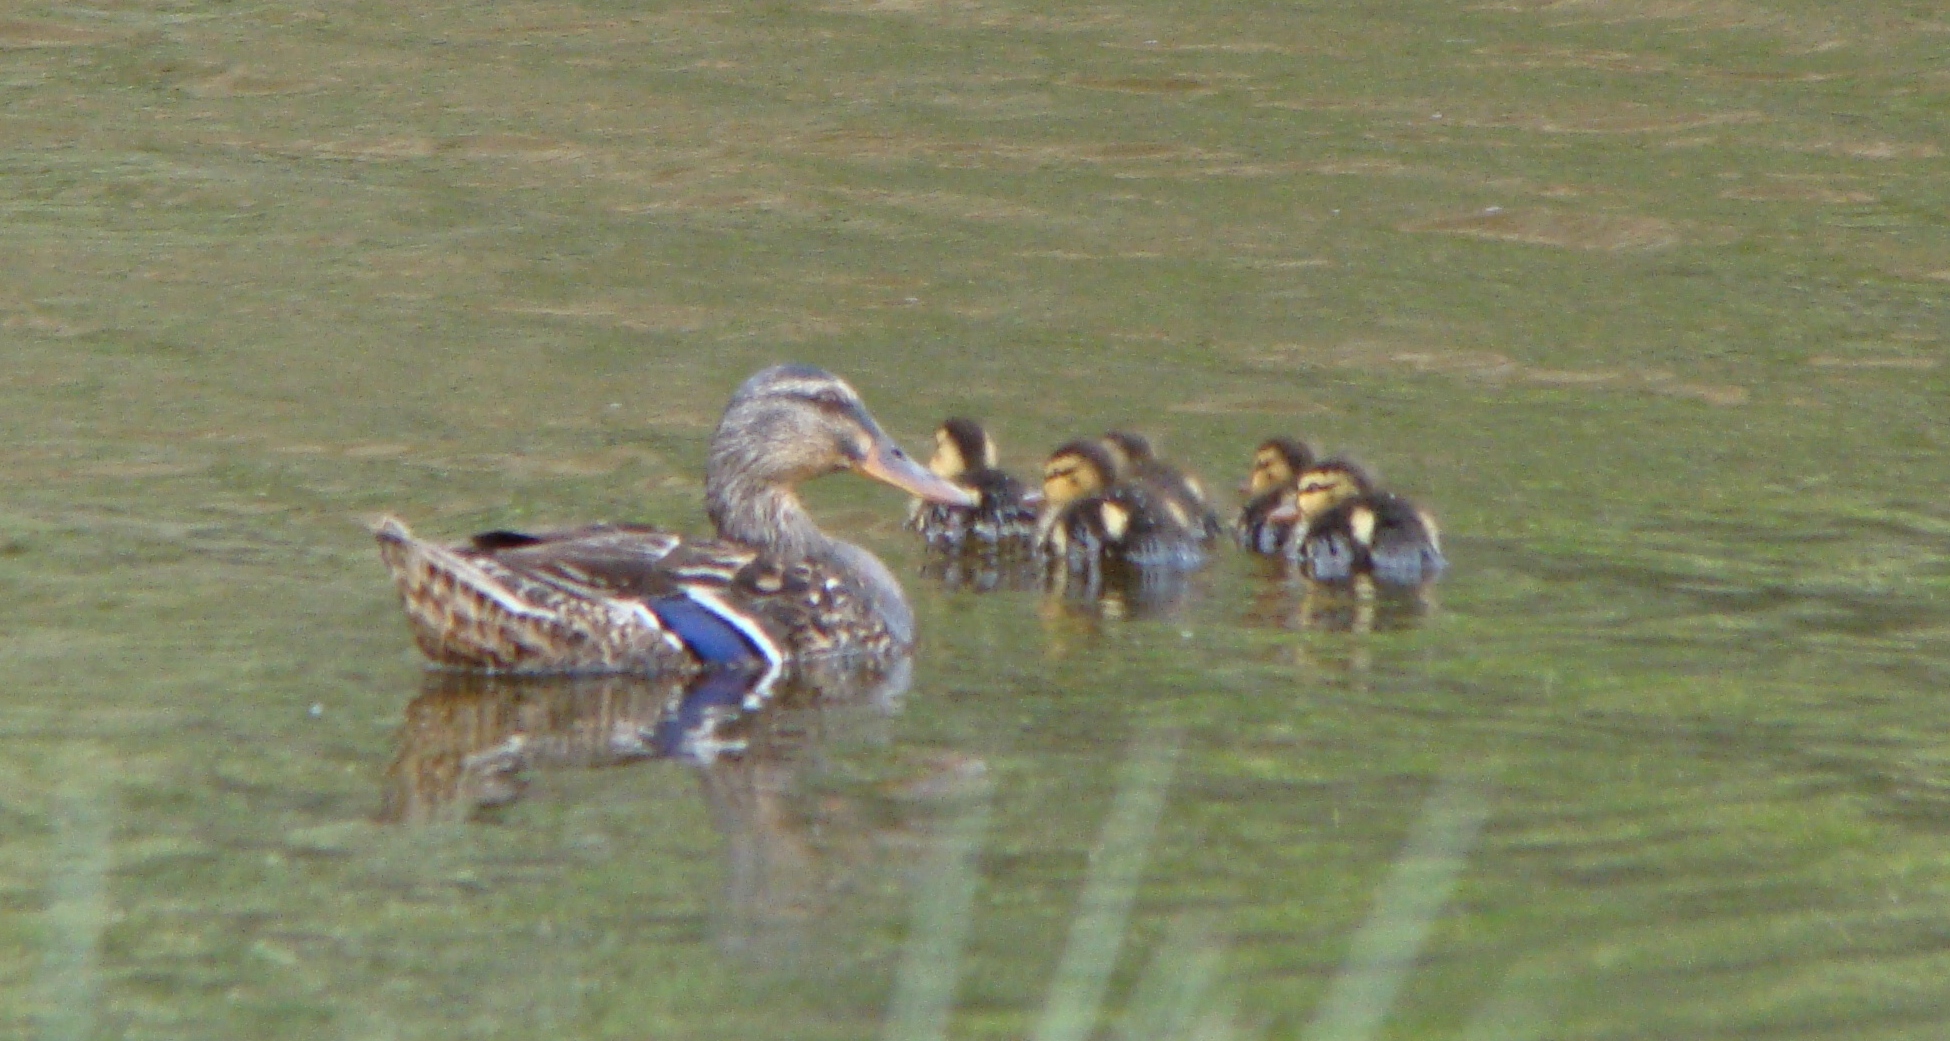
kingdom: Animalia
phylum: Chordata
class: Aves
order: Anseriformes
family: Anatidae
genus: Anas
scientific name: Anas platyrhynchos
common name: Mallard
